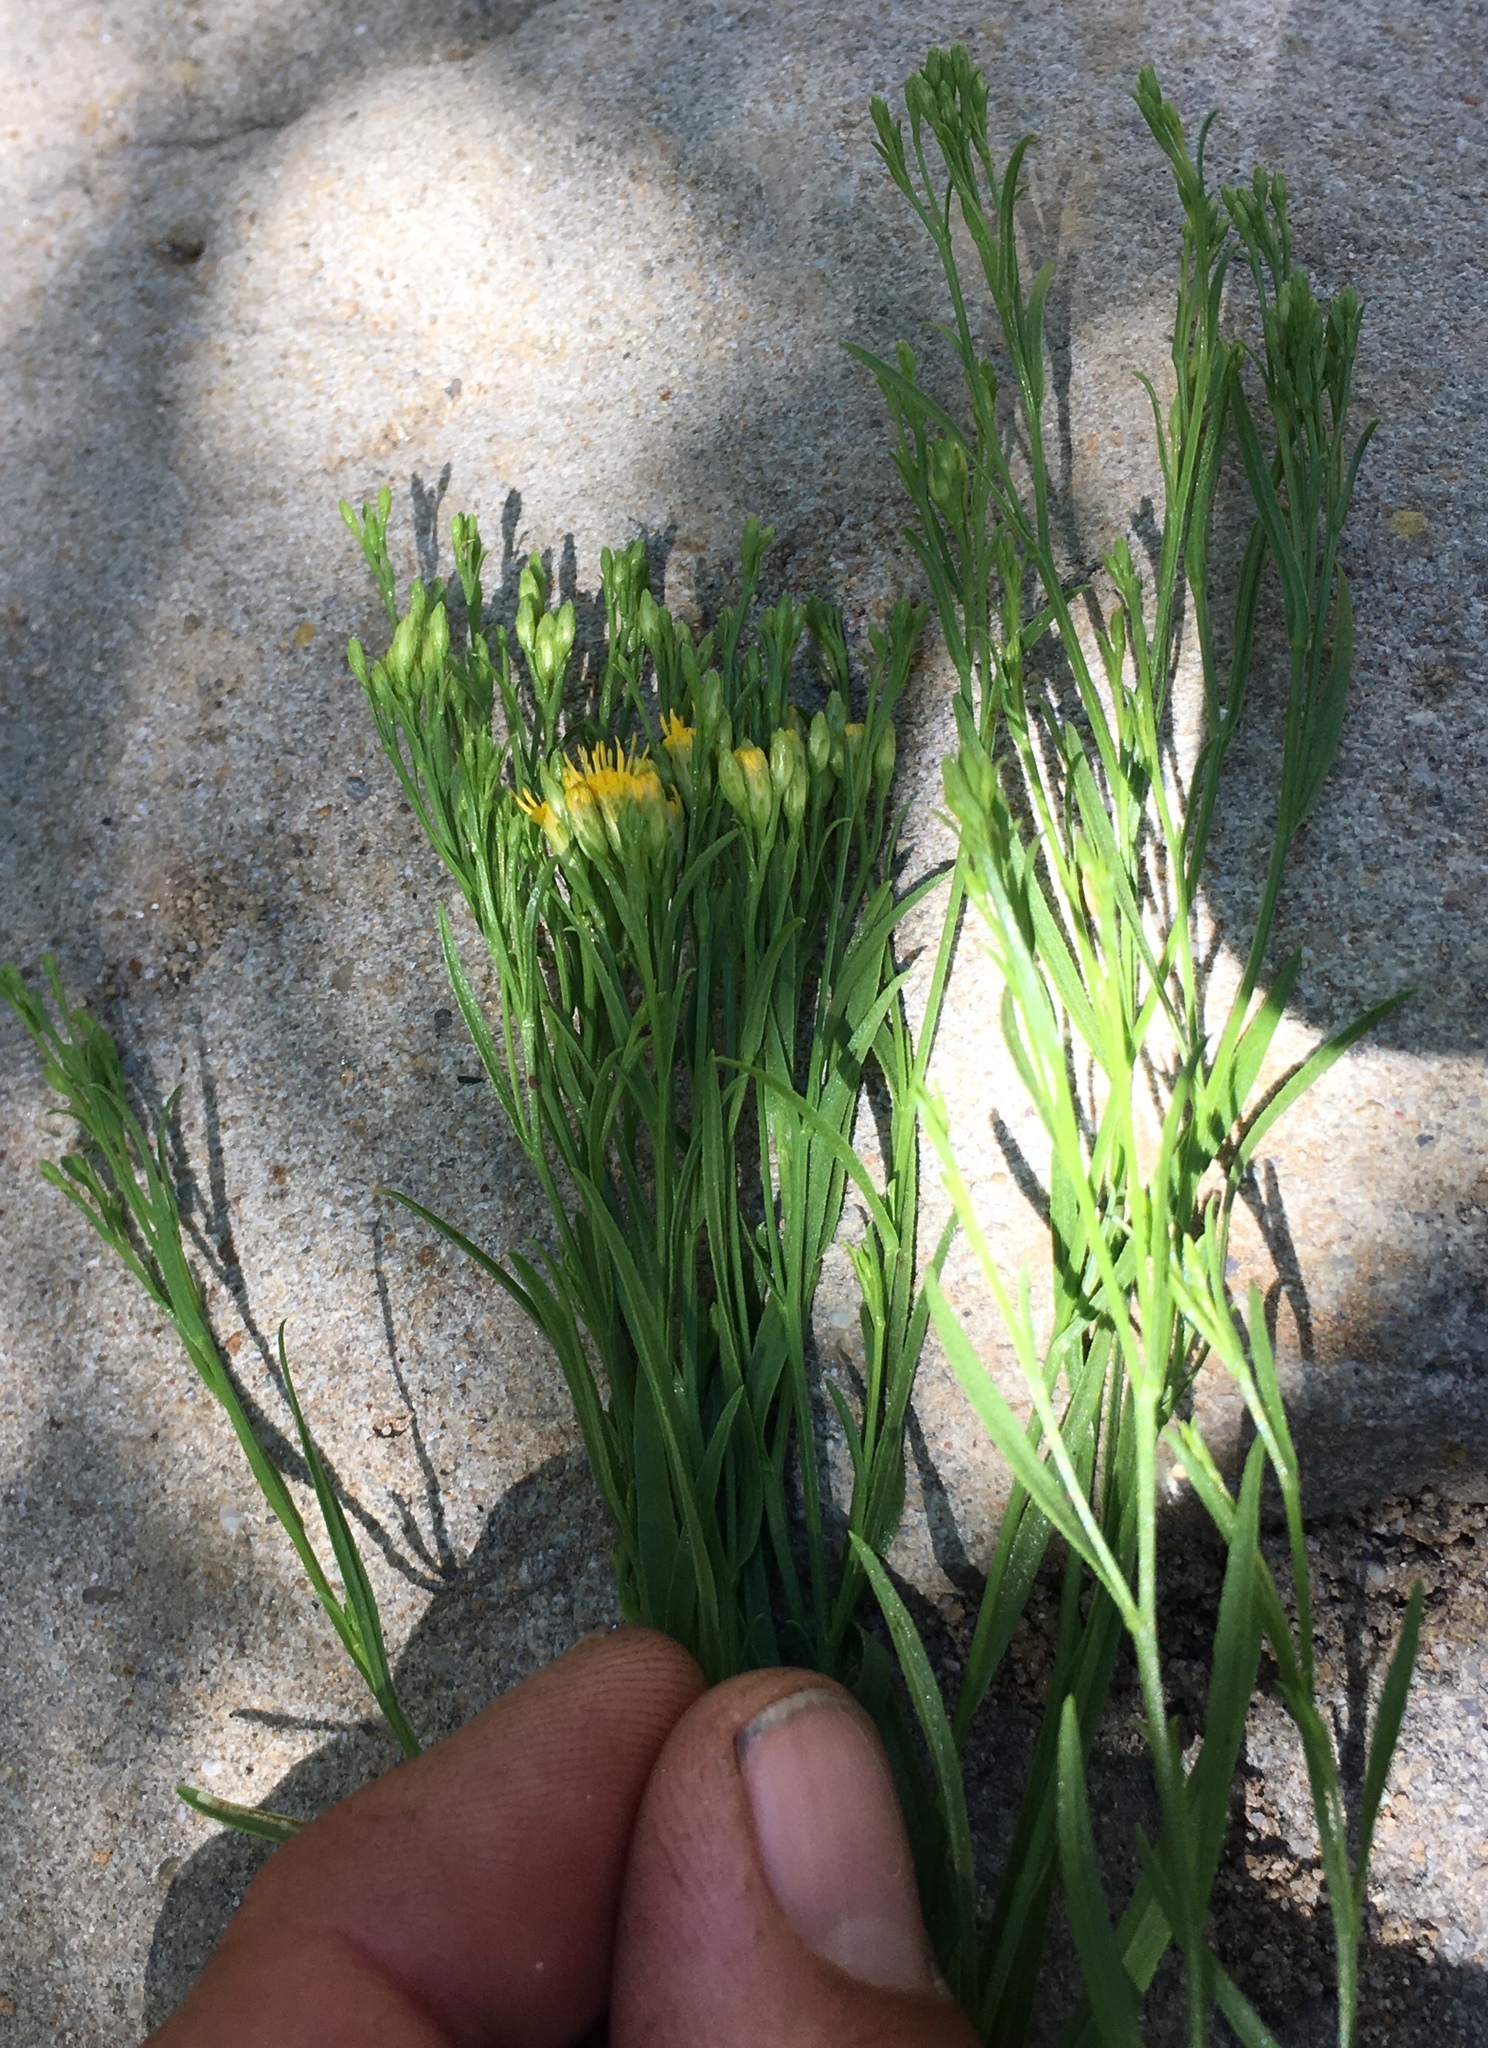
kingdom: Plantae
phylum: Tracheophyta
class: Magnoliopsida
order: Asterales
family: Asteraceae
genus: Euthamia
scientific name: Euthamia occidentalis
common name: Western goldentop
